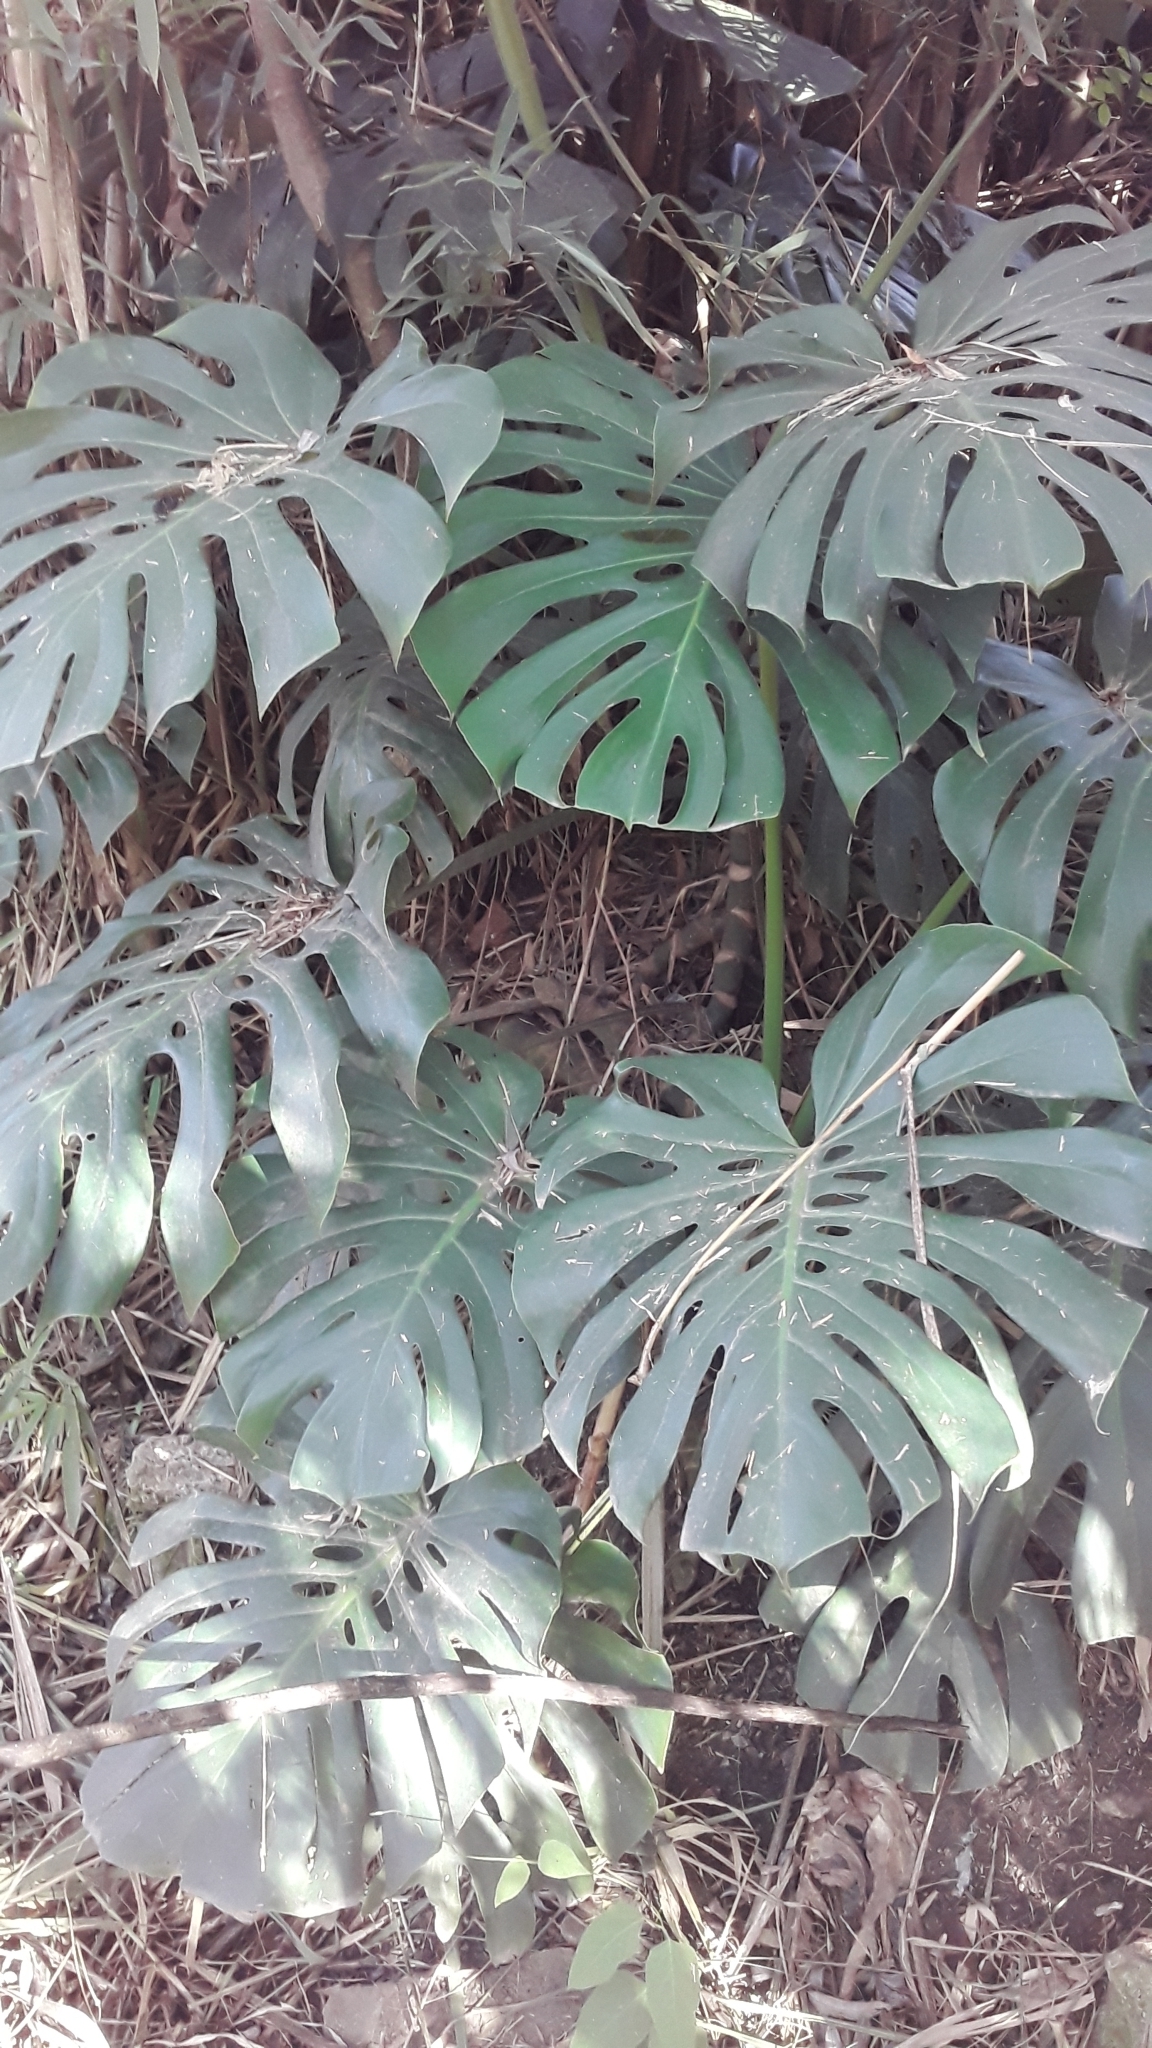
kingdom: Plantae
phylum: Tracheophyta
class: Liliopsida
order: Alismatales
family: Araceae
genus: Monstera
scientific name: Monstera deliciosa
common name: Cut-leaf-philodendron
